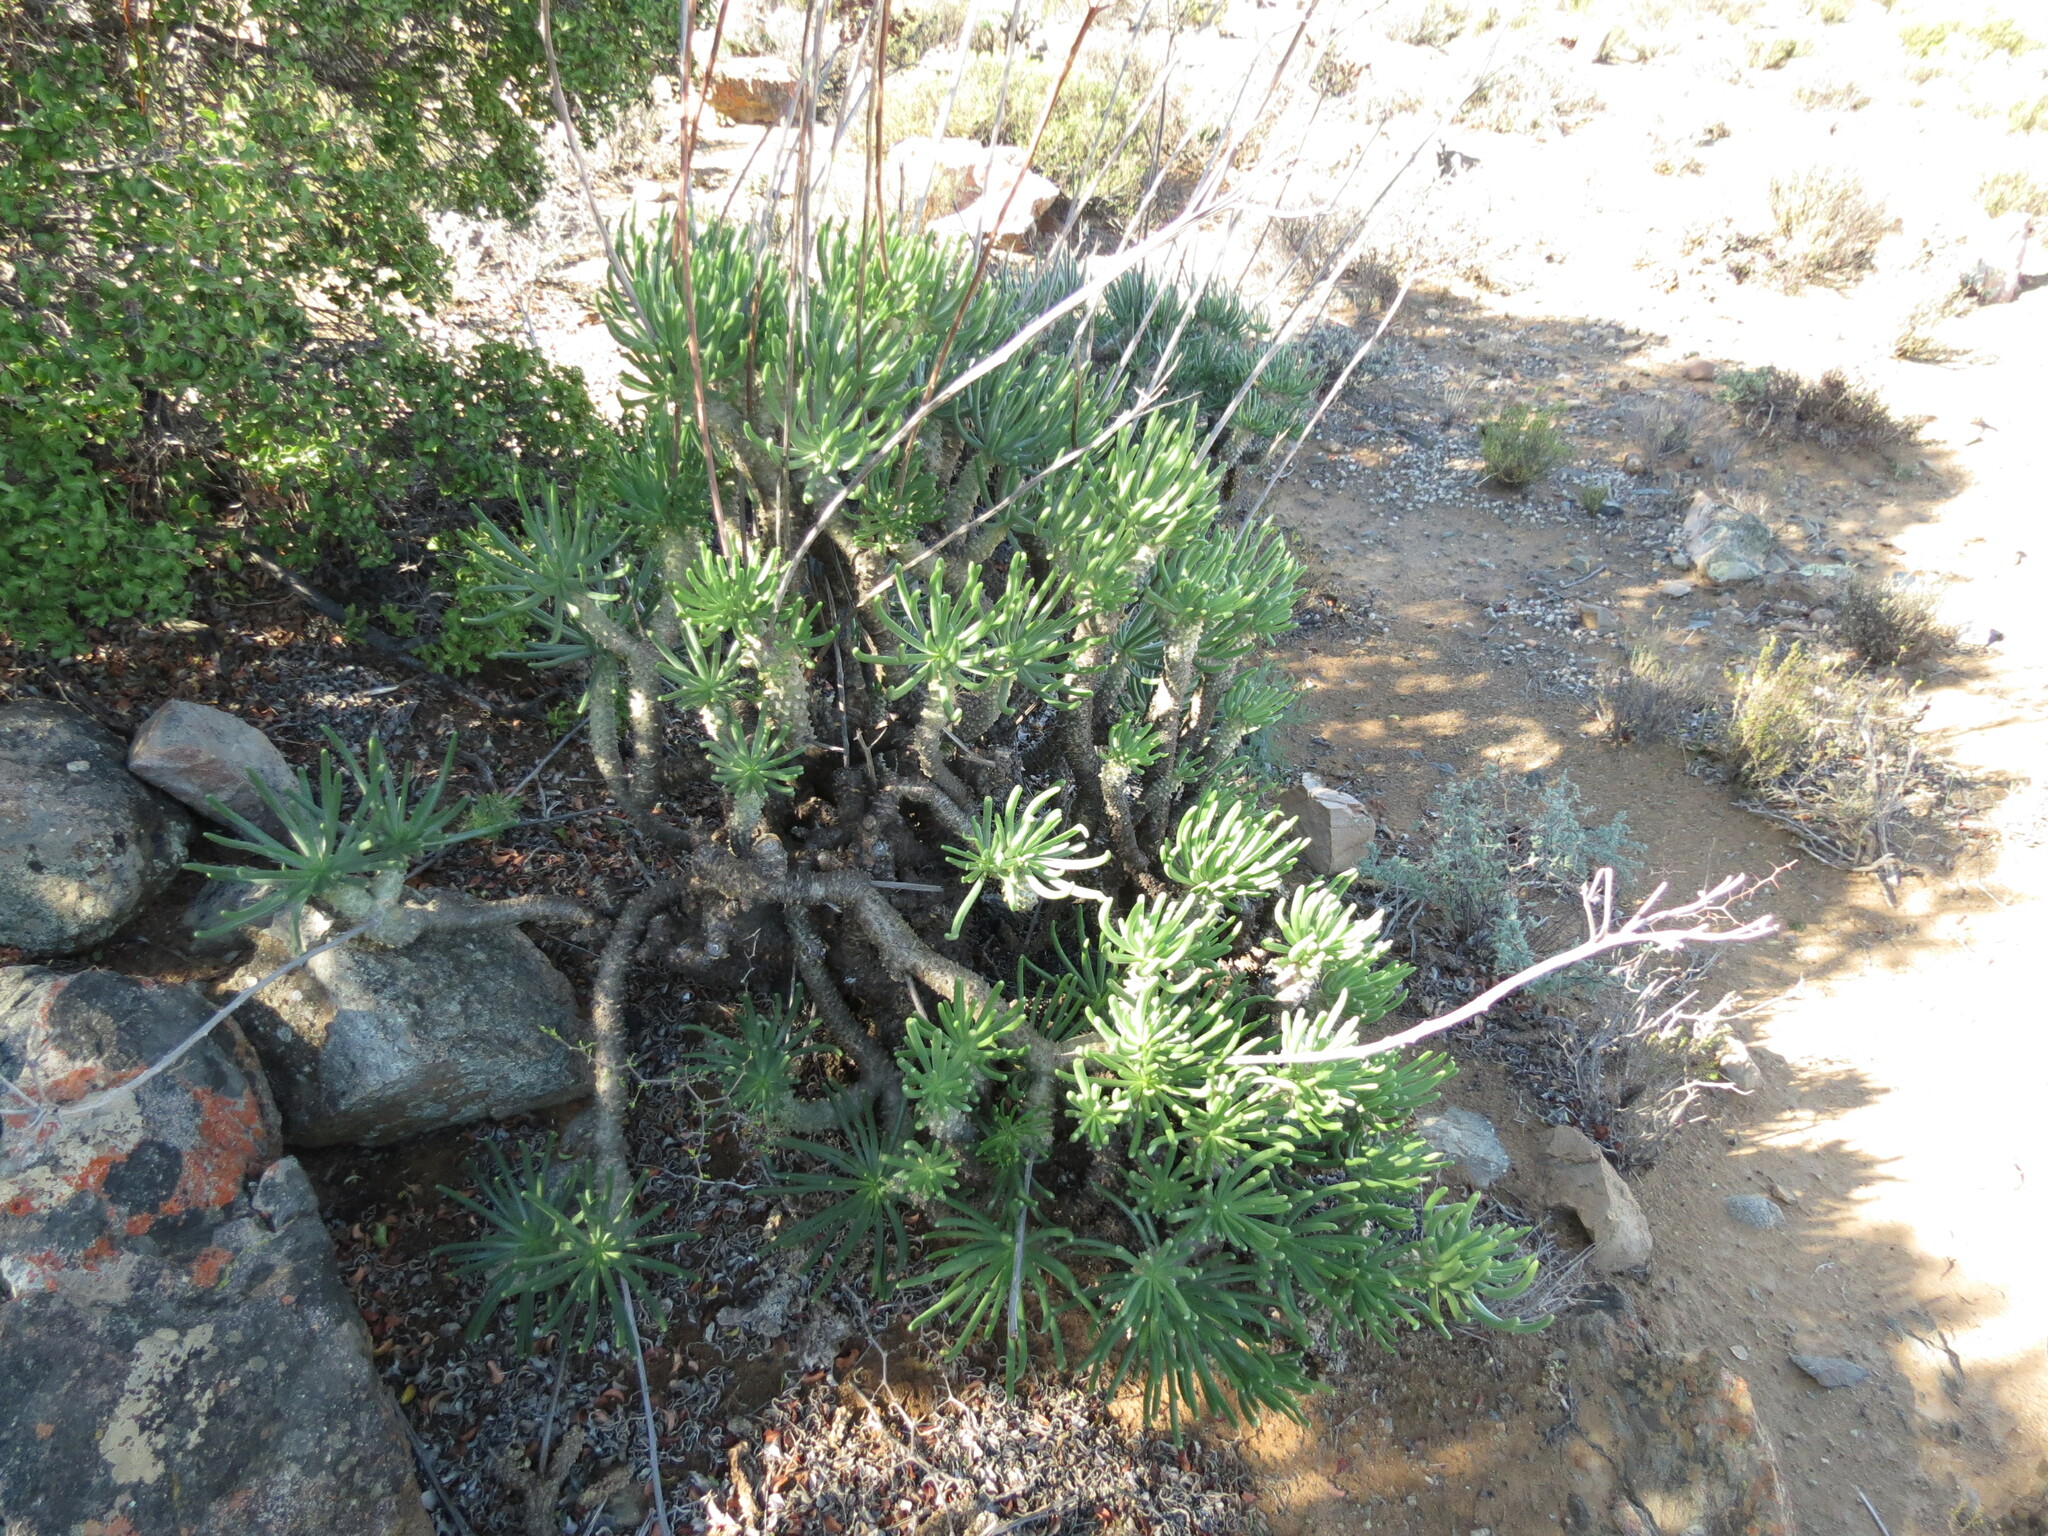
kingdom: Plantae
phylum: Tracheophyta
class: Magnoliopsida
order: Saxifragales
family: Crassulaceae
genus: Tylecodon
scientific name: Tylecodon wallichii
